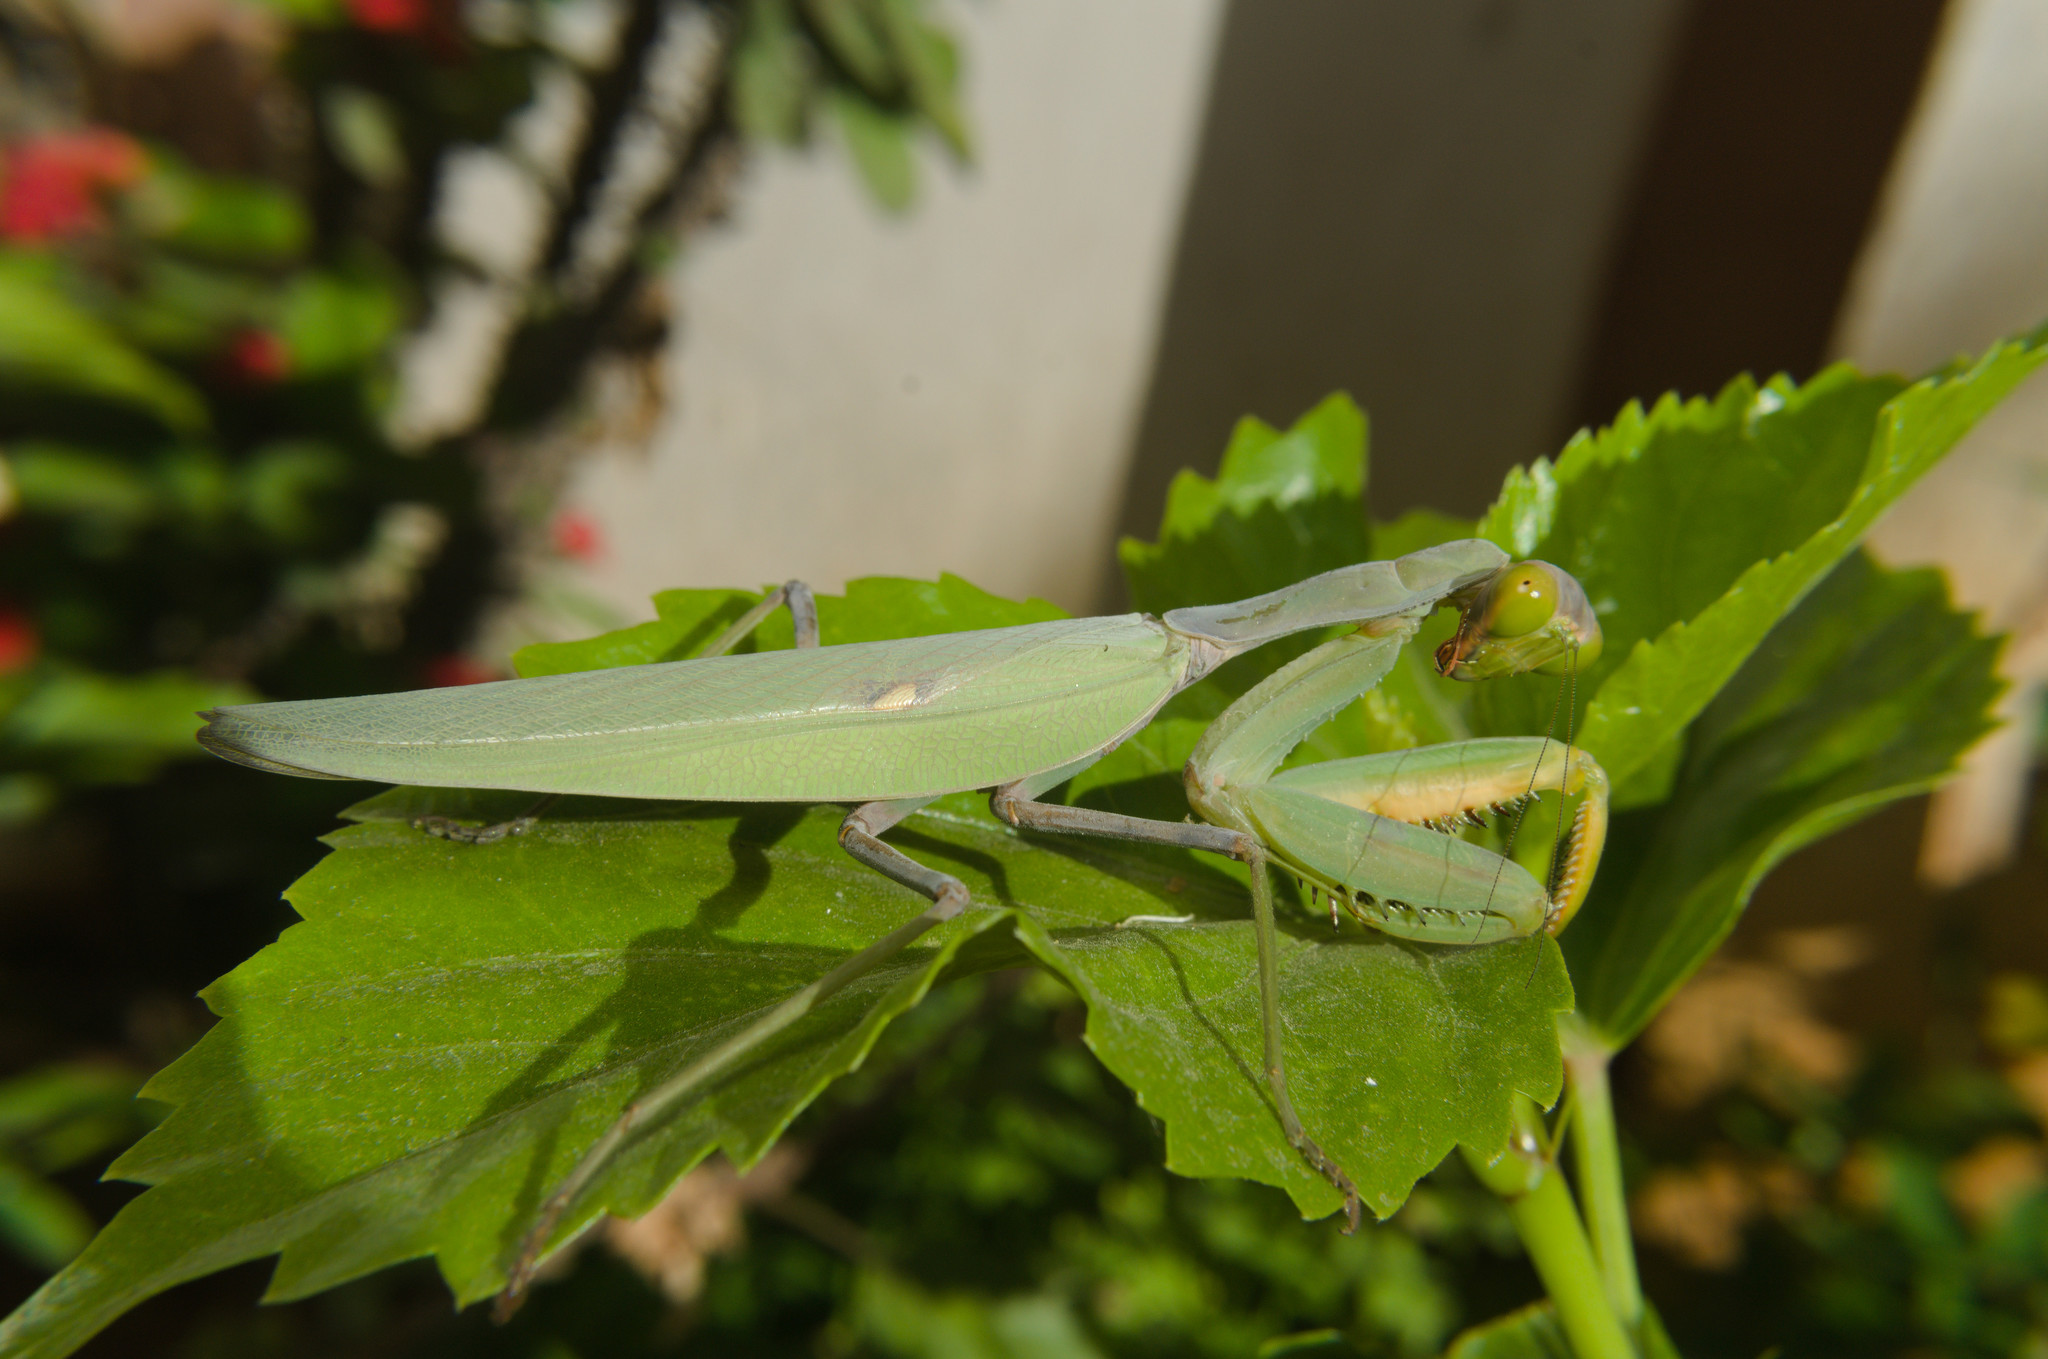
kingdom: Animalia
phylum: Arthropoda
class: Insecta
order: Mantodea
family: Mantidae
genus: Hierodula
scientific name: Hierodula tenuidentata
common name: Giant asian mantis
